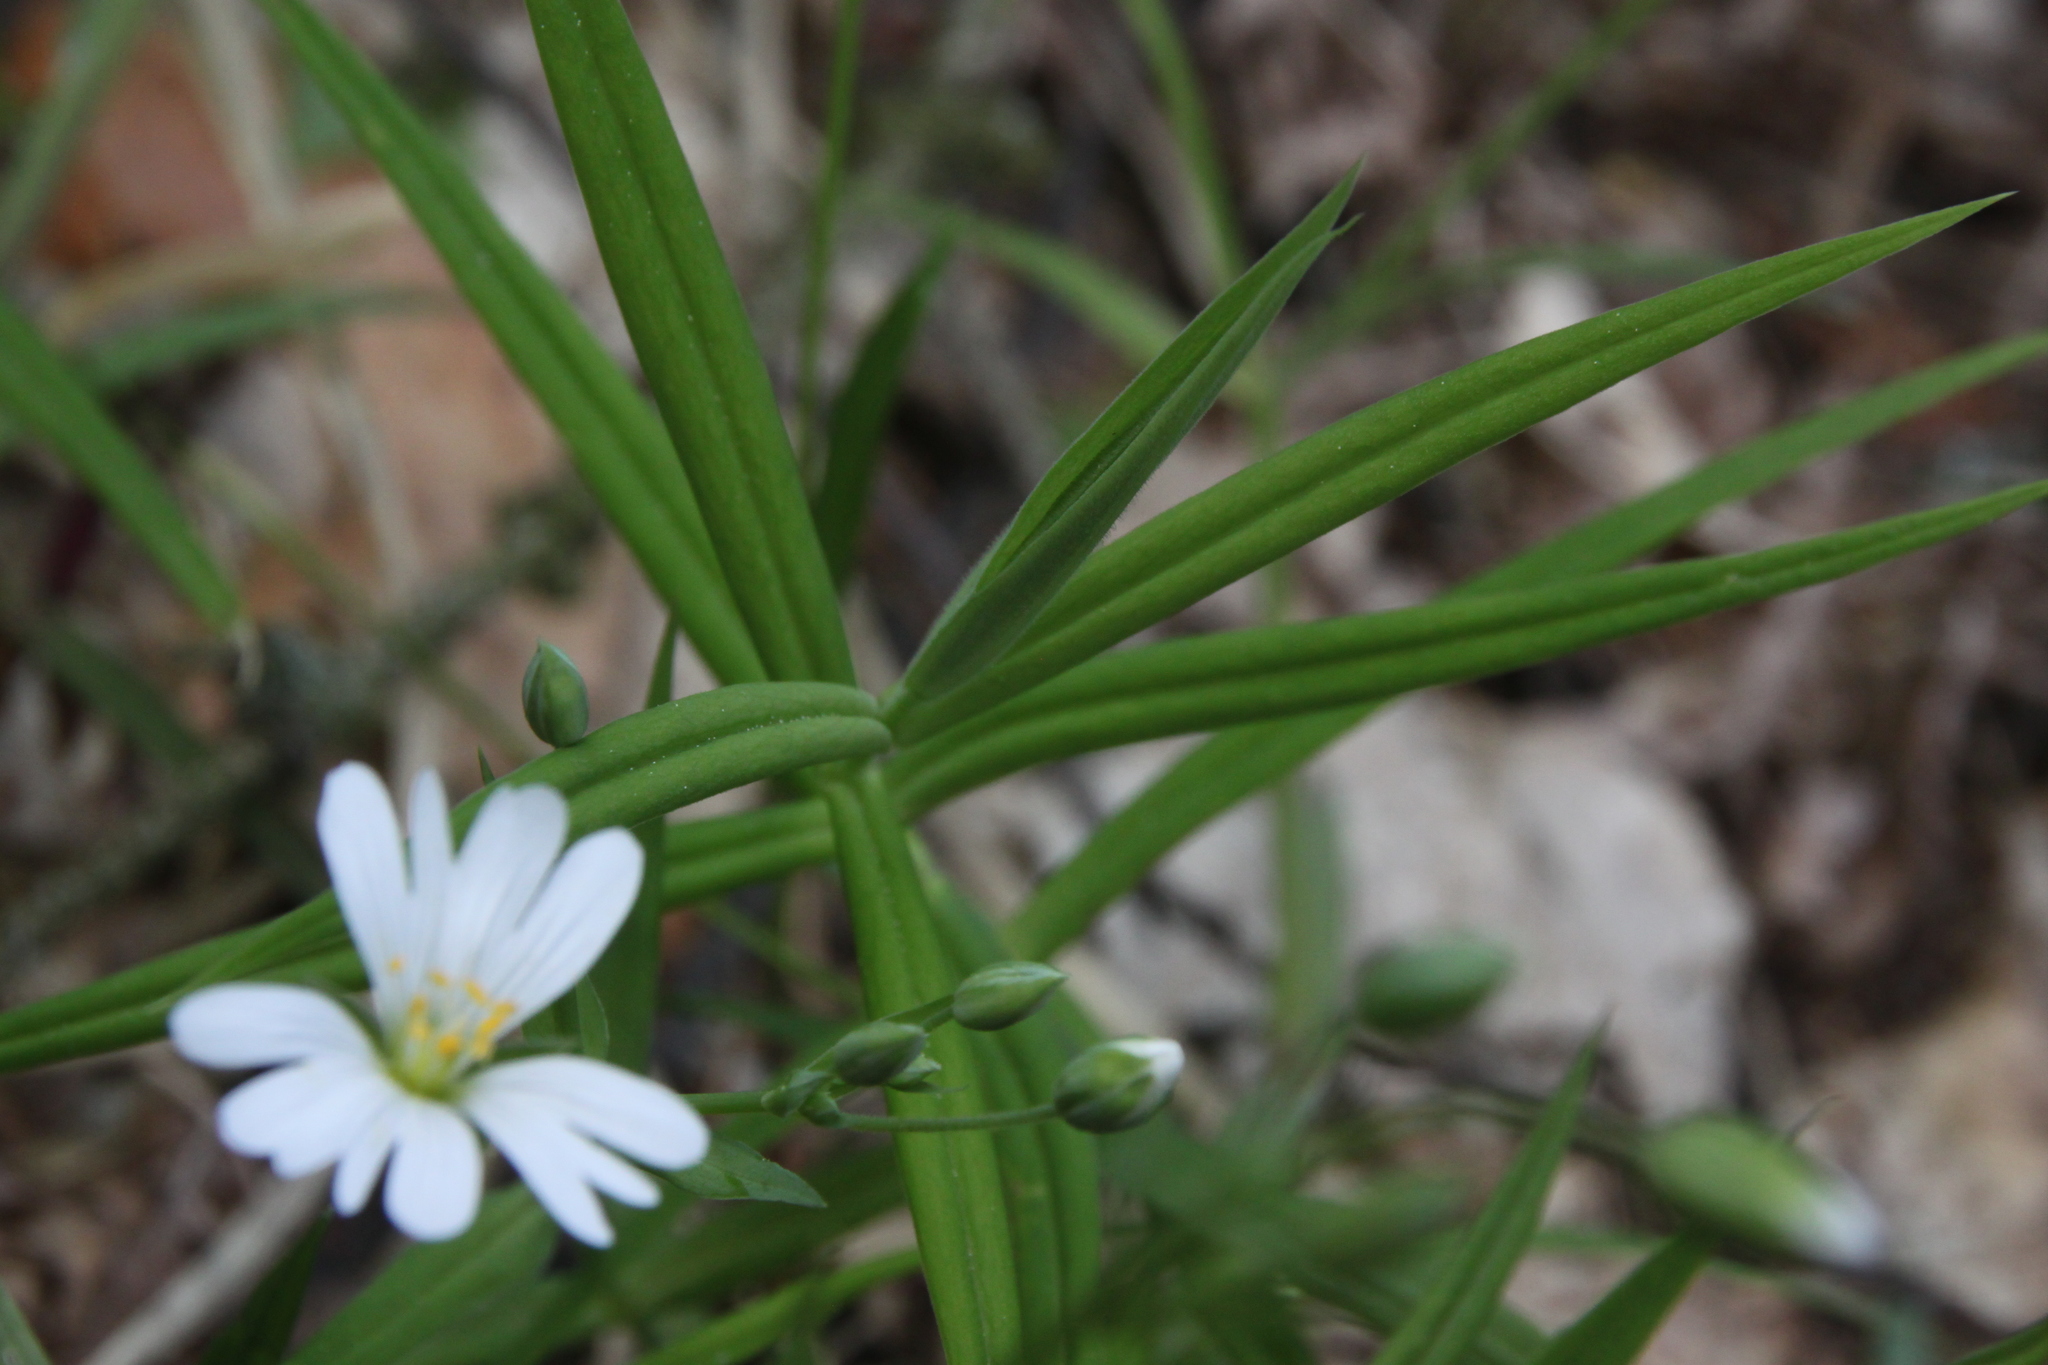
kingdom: Plantae
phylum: Tracheophyta
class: Magnoliopsida
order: Caryophyllales
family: Caryophyllaceae
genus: Rabelera
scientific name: Rabelera holostea
